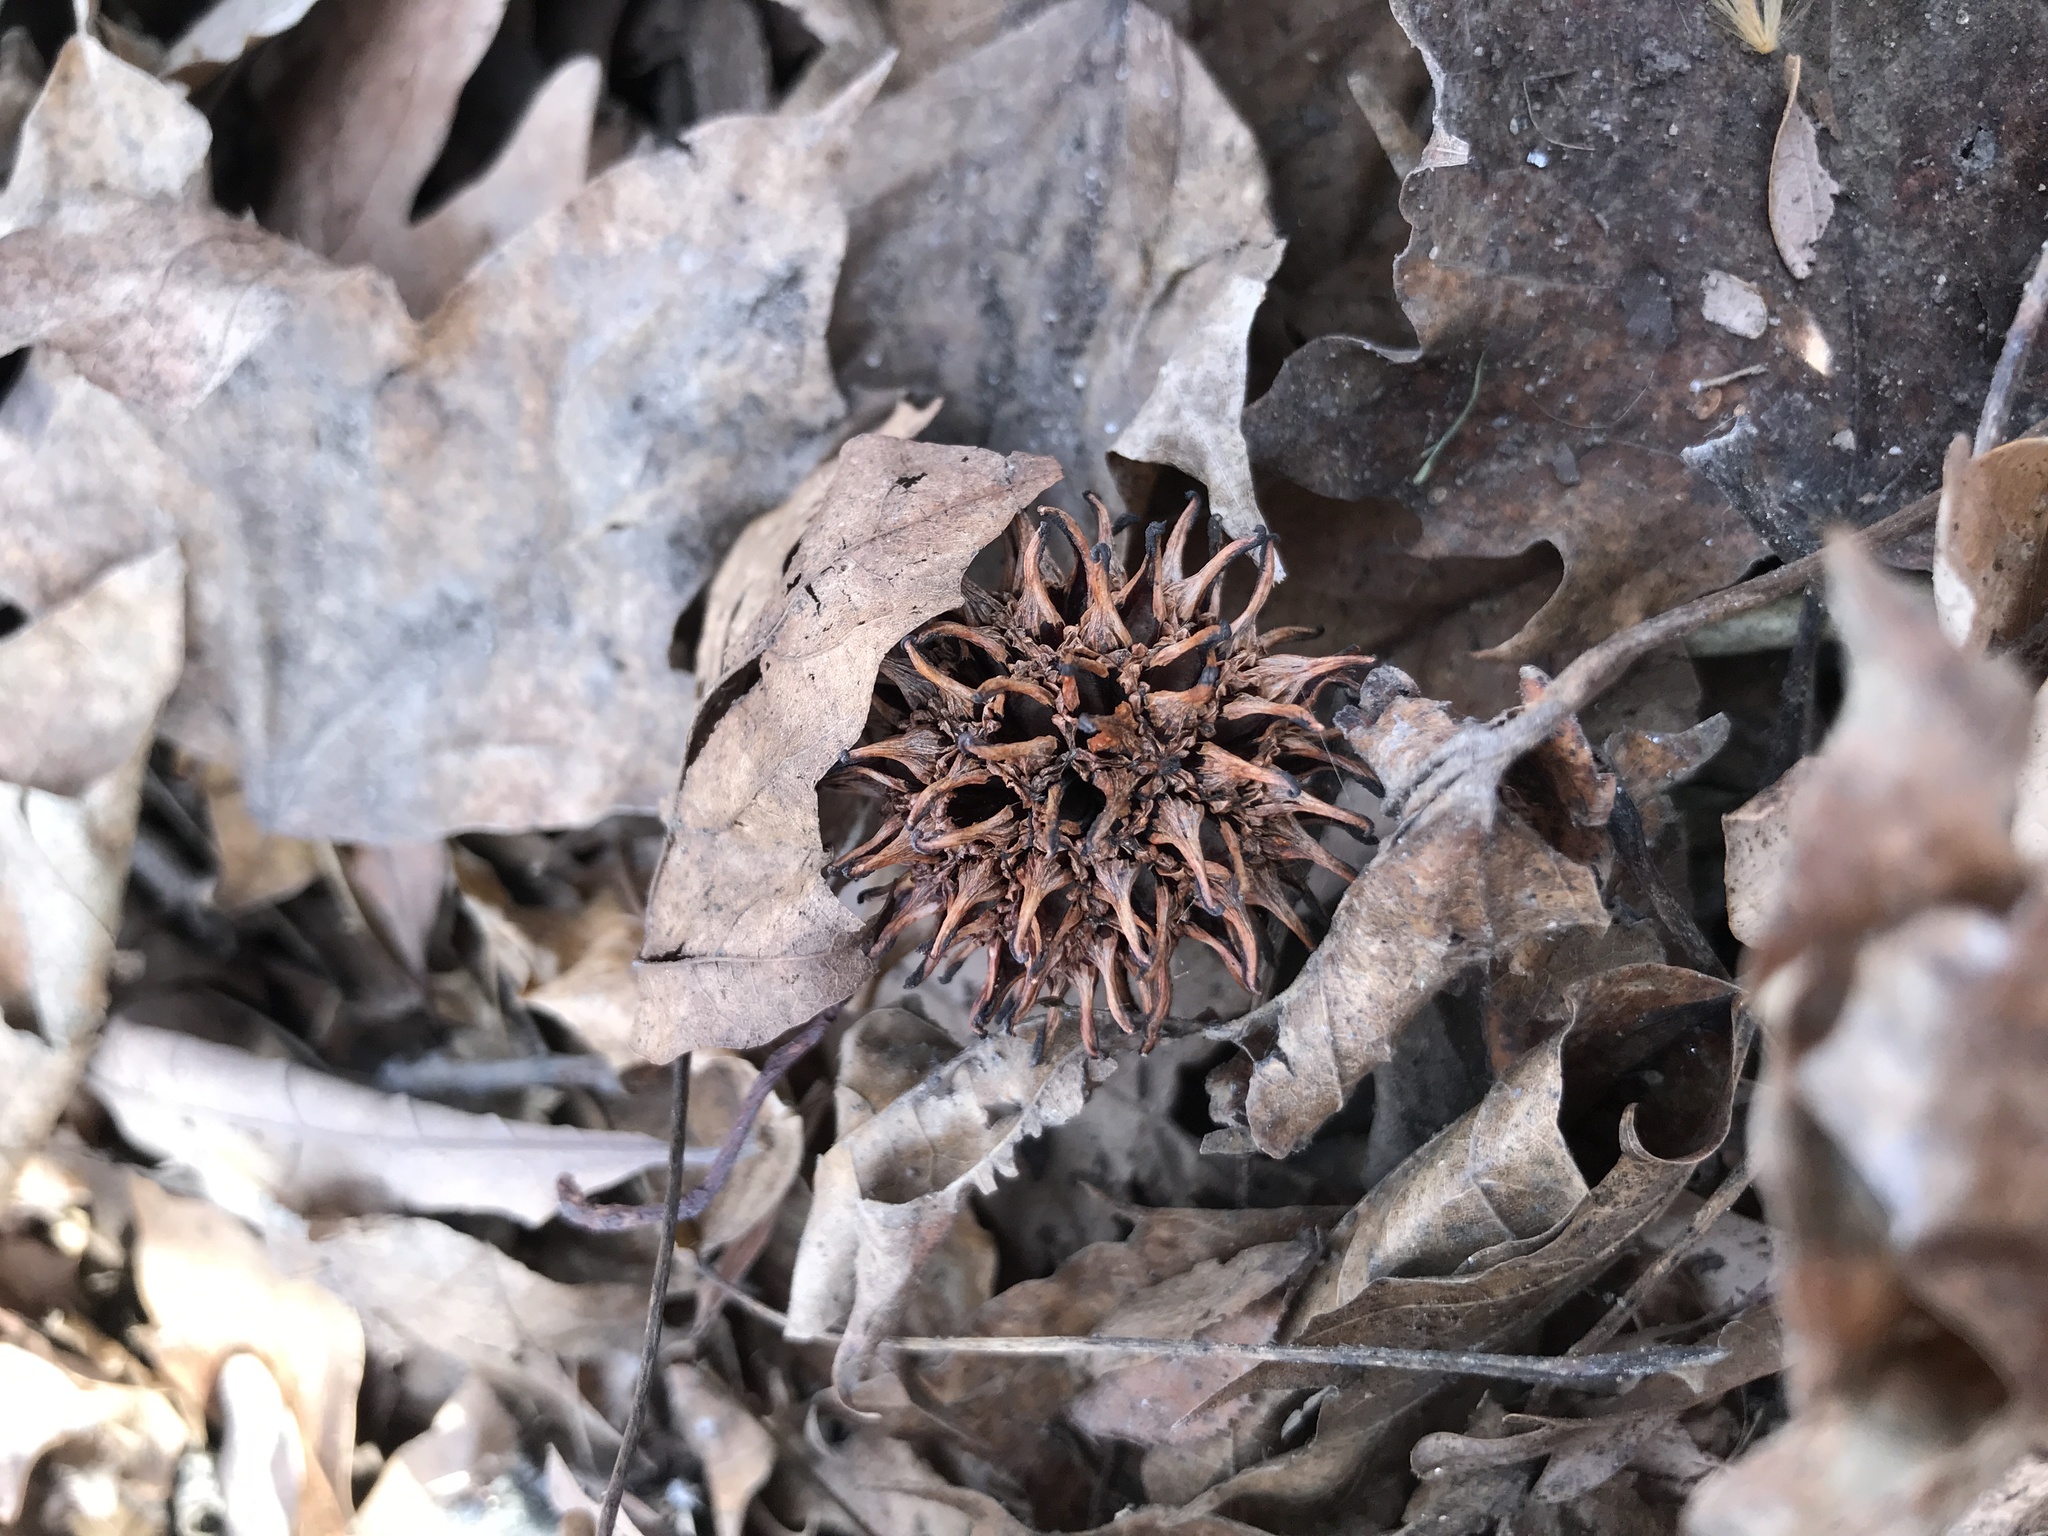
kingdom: Plantae
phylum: Tracheophyta
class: Magnoliopsida
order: Saxifragales
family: Altingiaceae
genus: Liquidambar
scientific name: Liquidambar styraciflua
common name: Sweet gum
